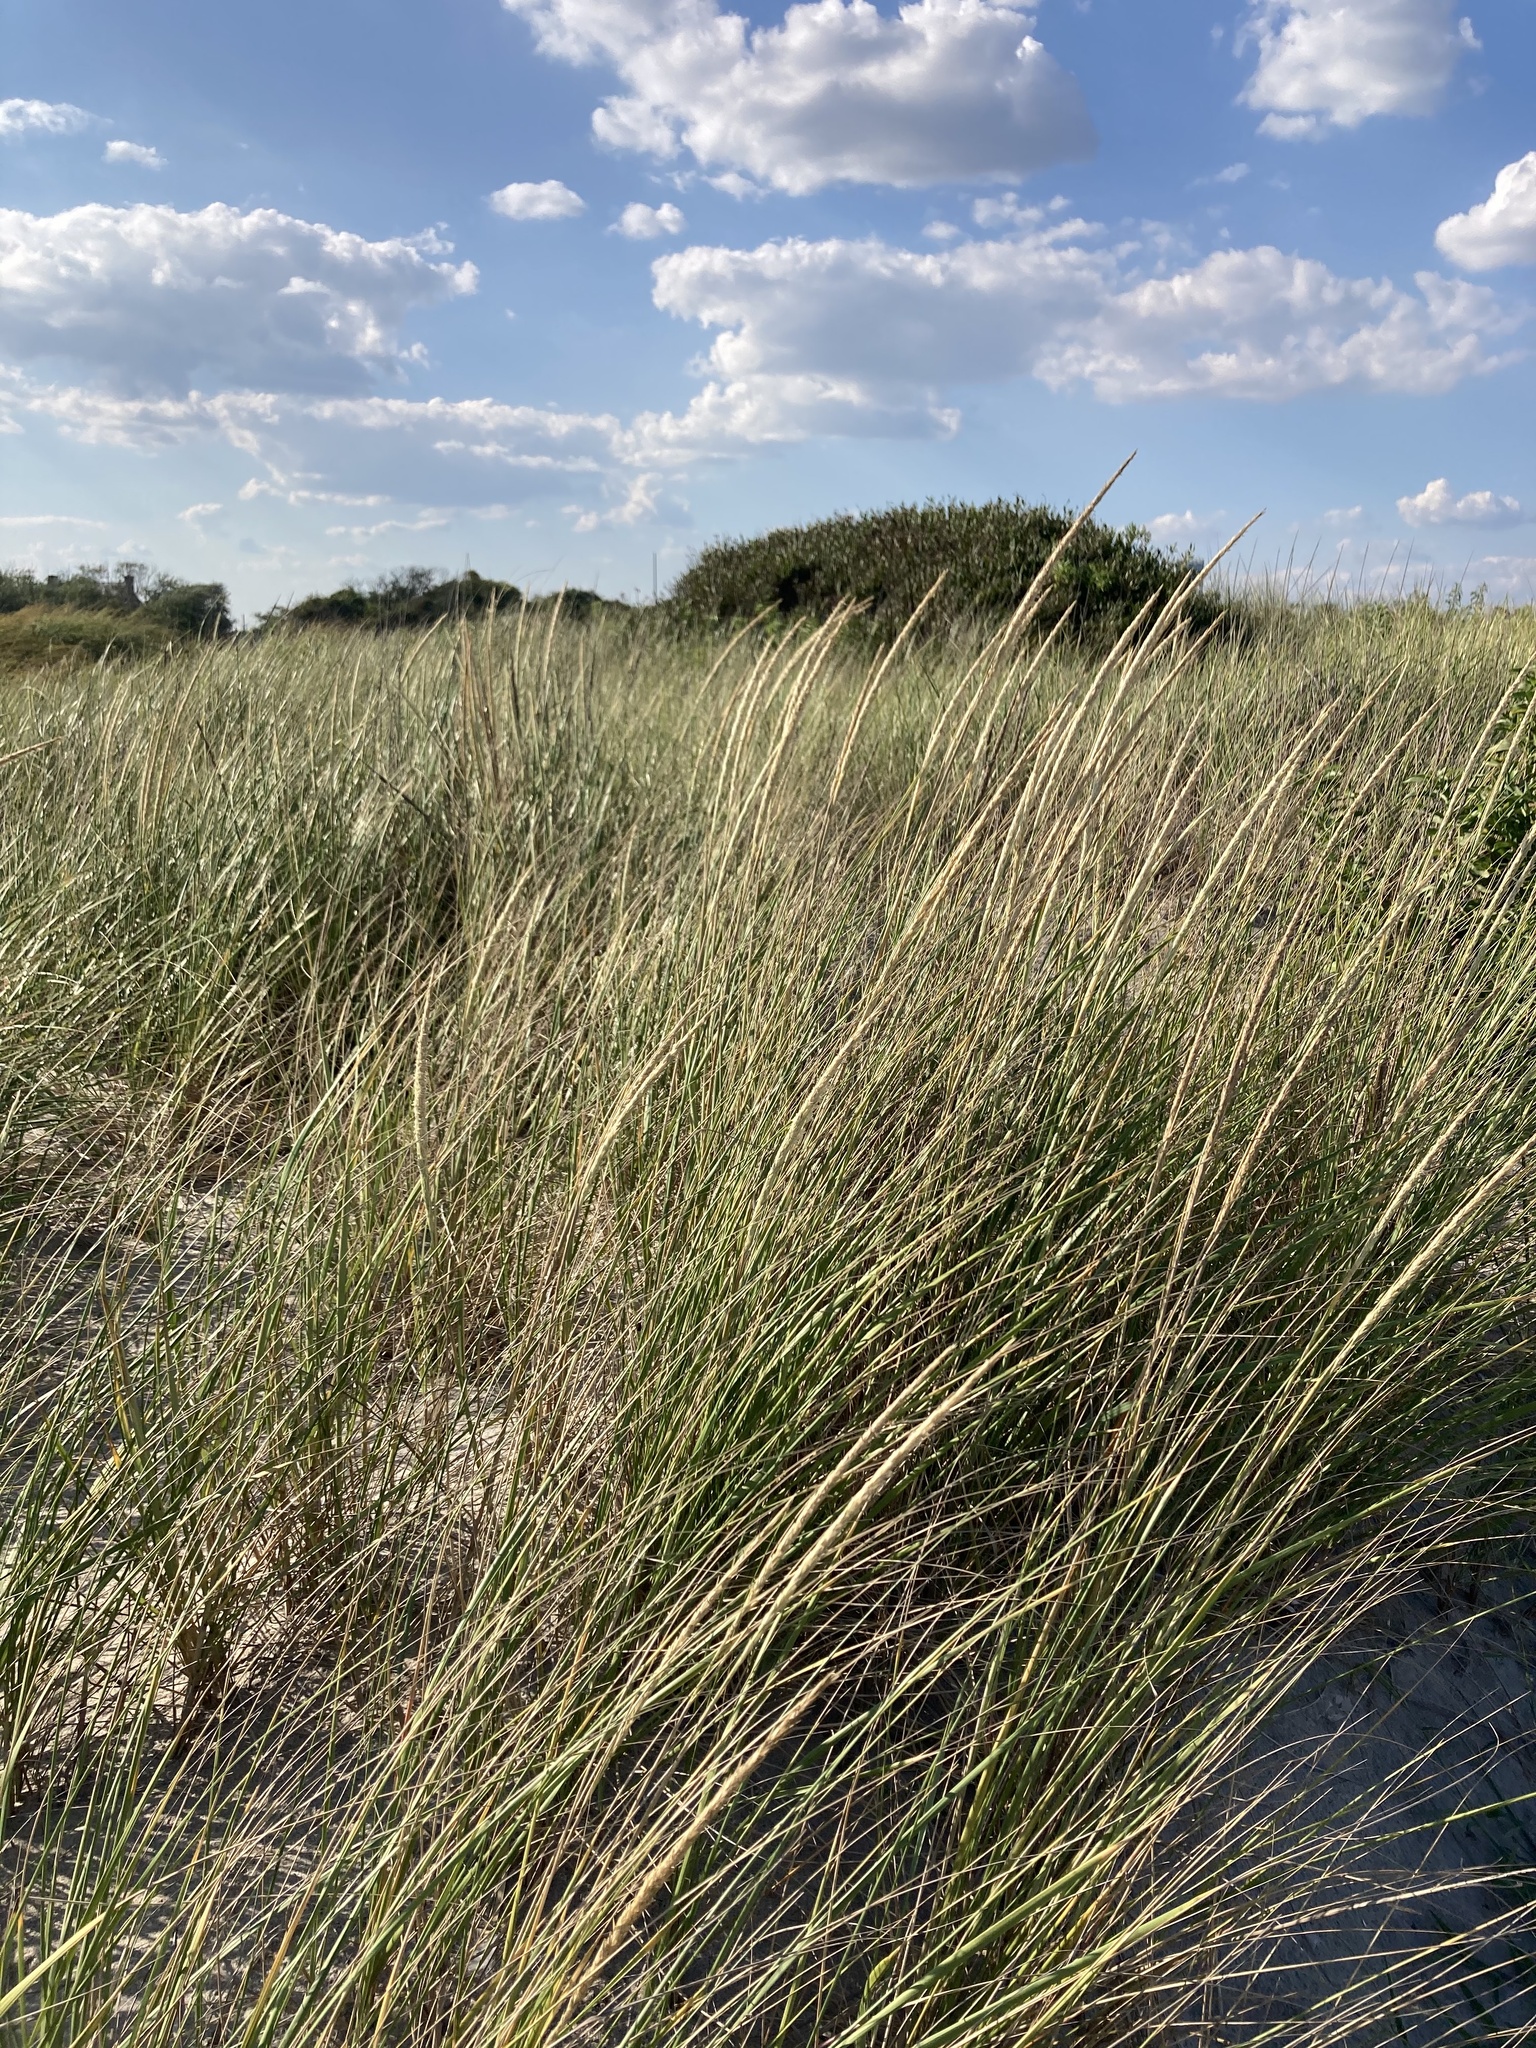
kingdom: Plantae
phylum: Tracheophyta
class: Liliopsida
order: Poales
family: Poaceae
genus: Calamagrostis
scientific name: Calamagrostis breviligulata
